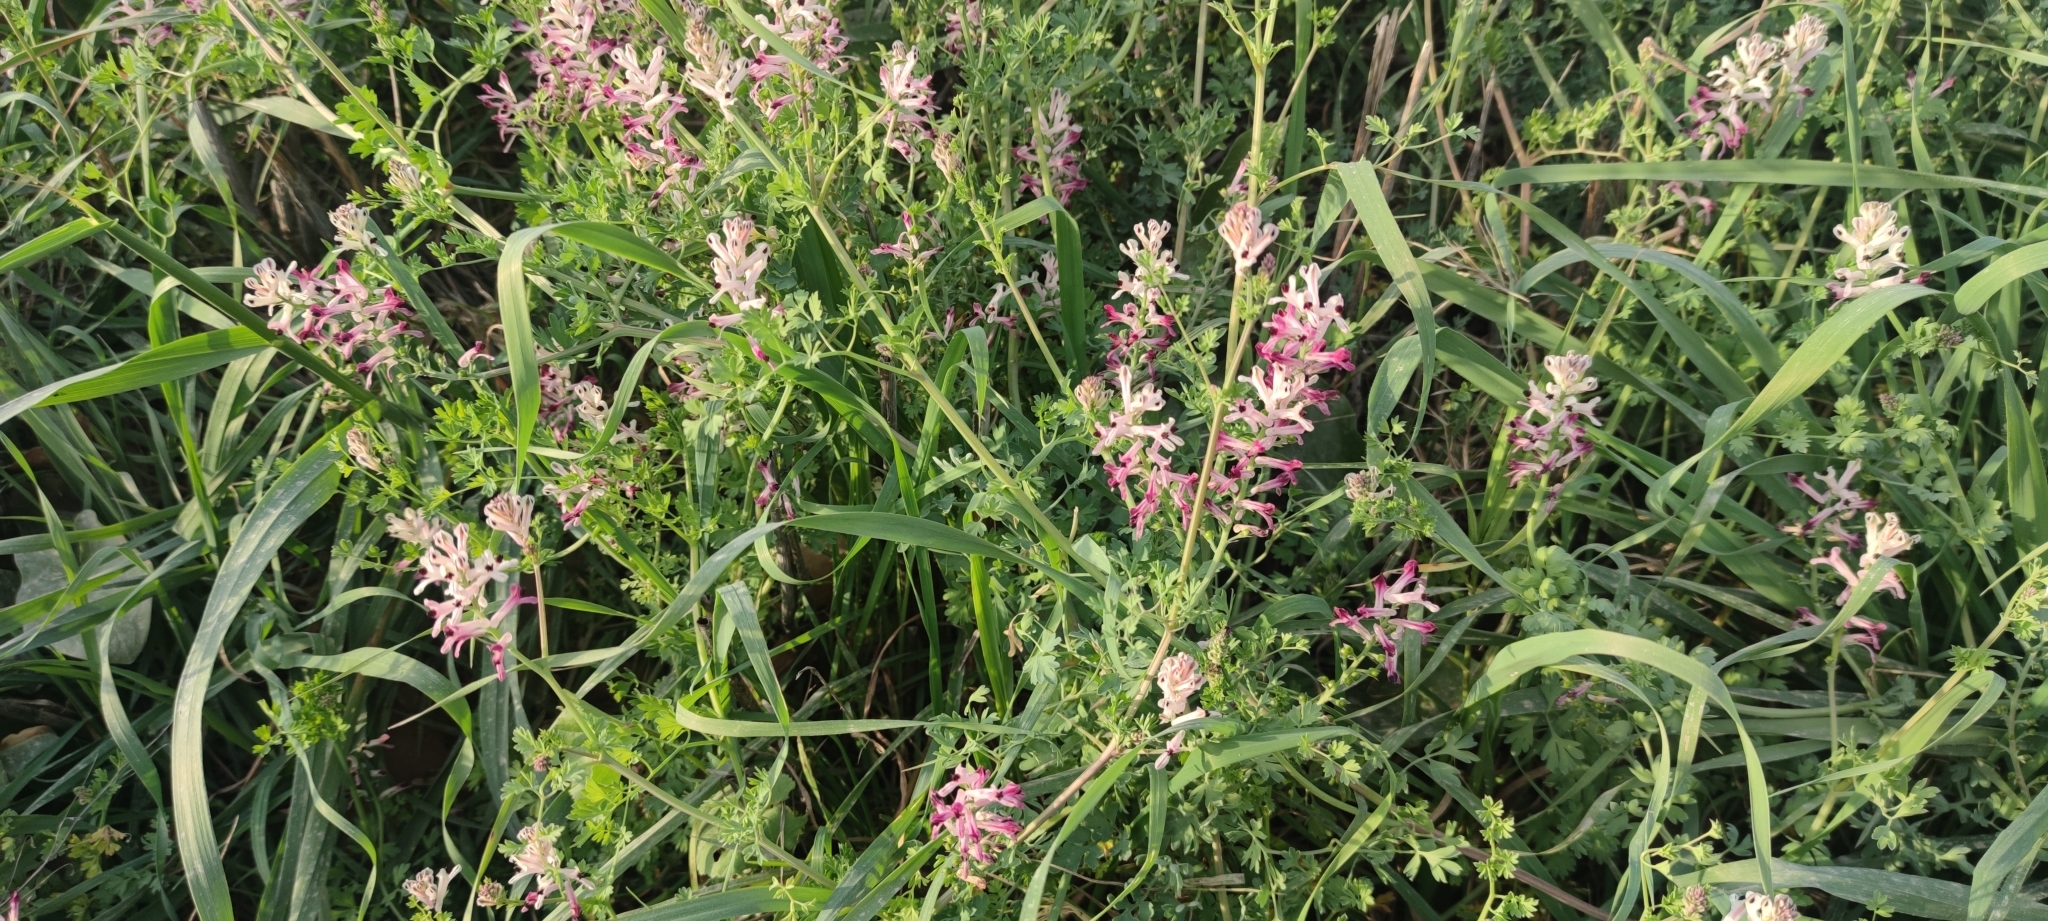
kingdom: Plantae
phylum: Tracheophyta
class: Magnoliopsida
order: Ranunculales
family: Papaveraceae
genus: Fumaria
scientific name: Fumaria agraria
